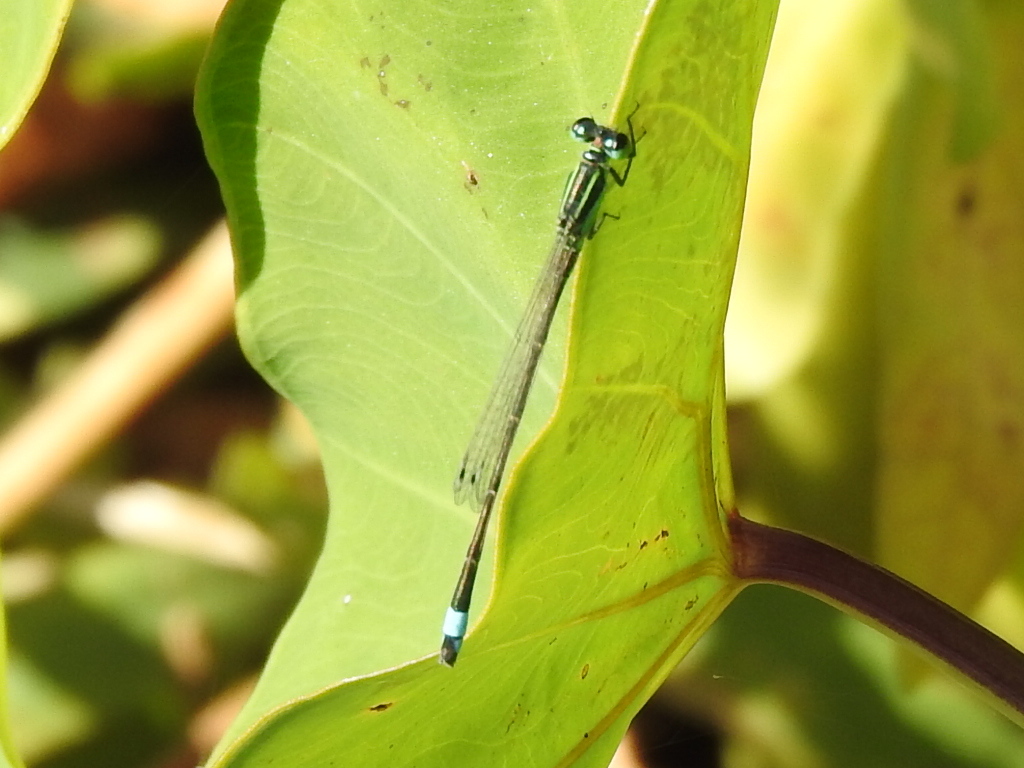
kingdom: Animalia
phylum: Arthropoda
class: Insecta
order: Odonata
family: Coenagrionidae
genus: Ischnura
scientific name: Ischnura ramburii
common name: Rambur's forktail
